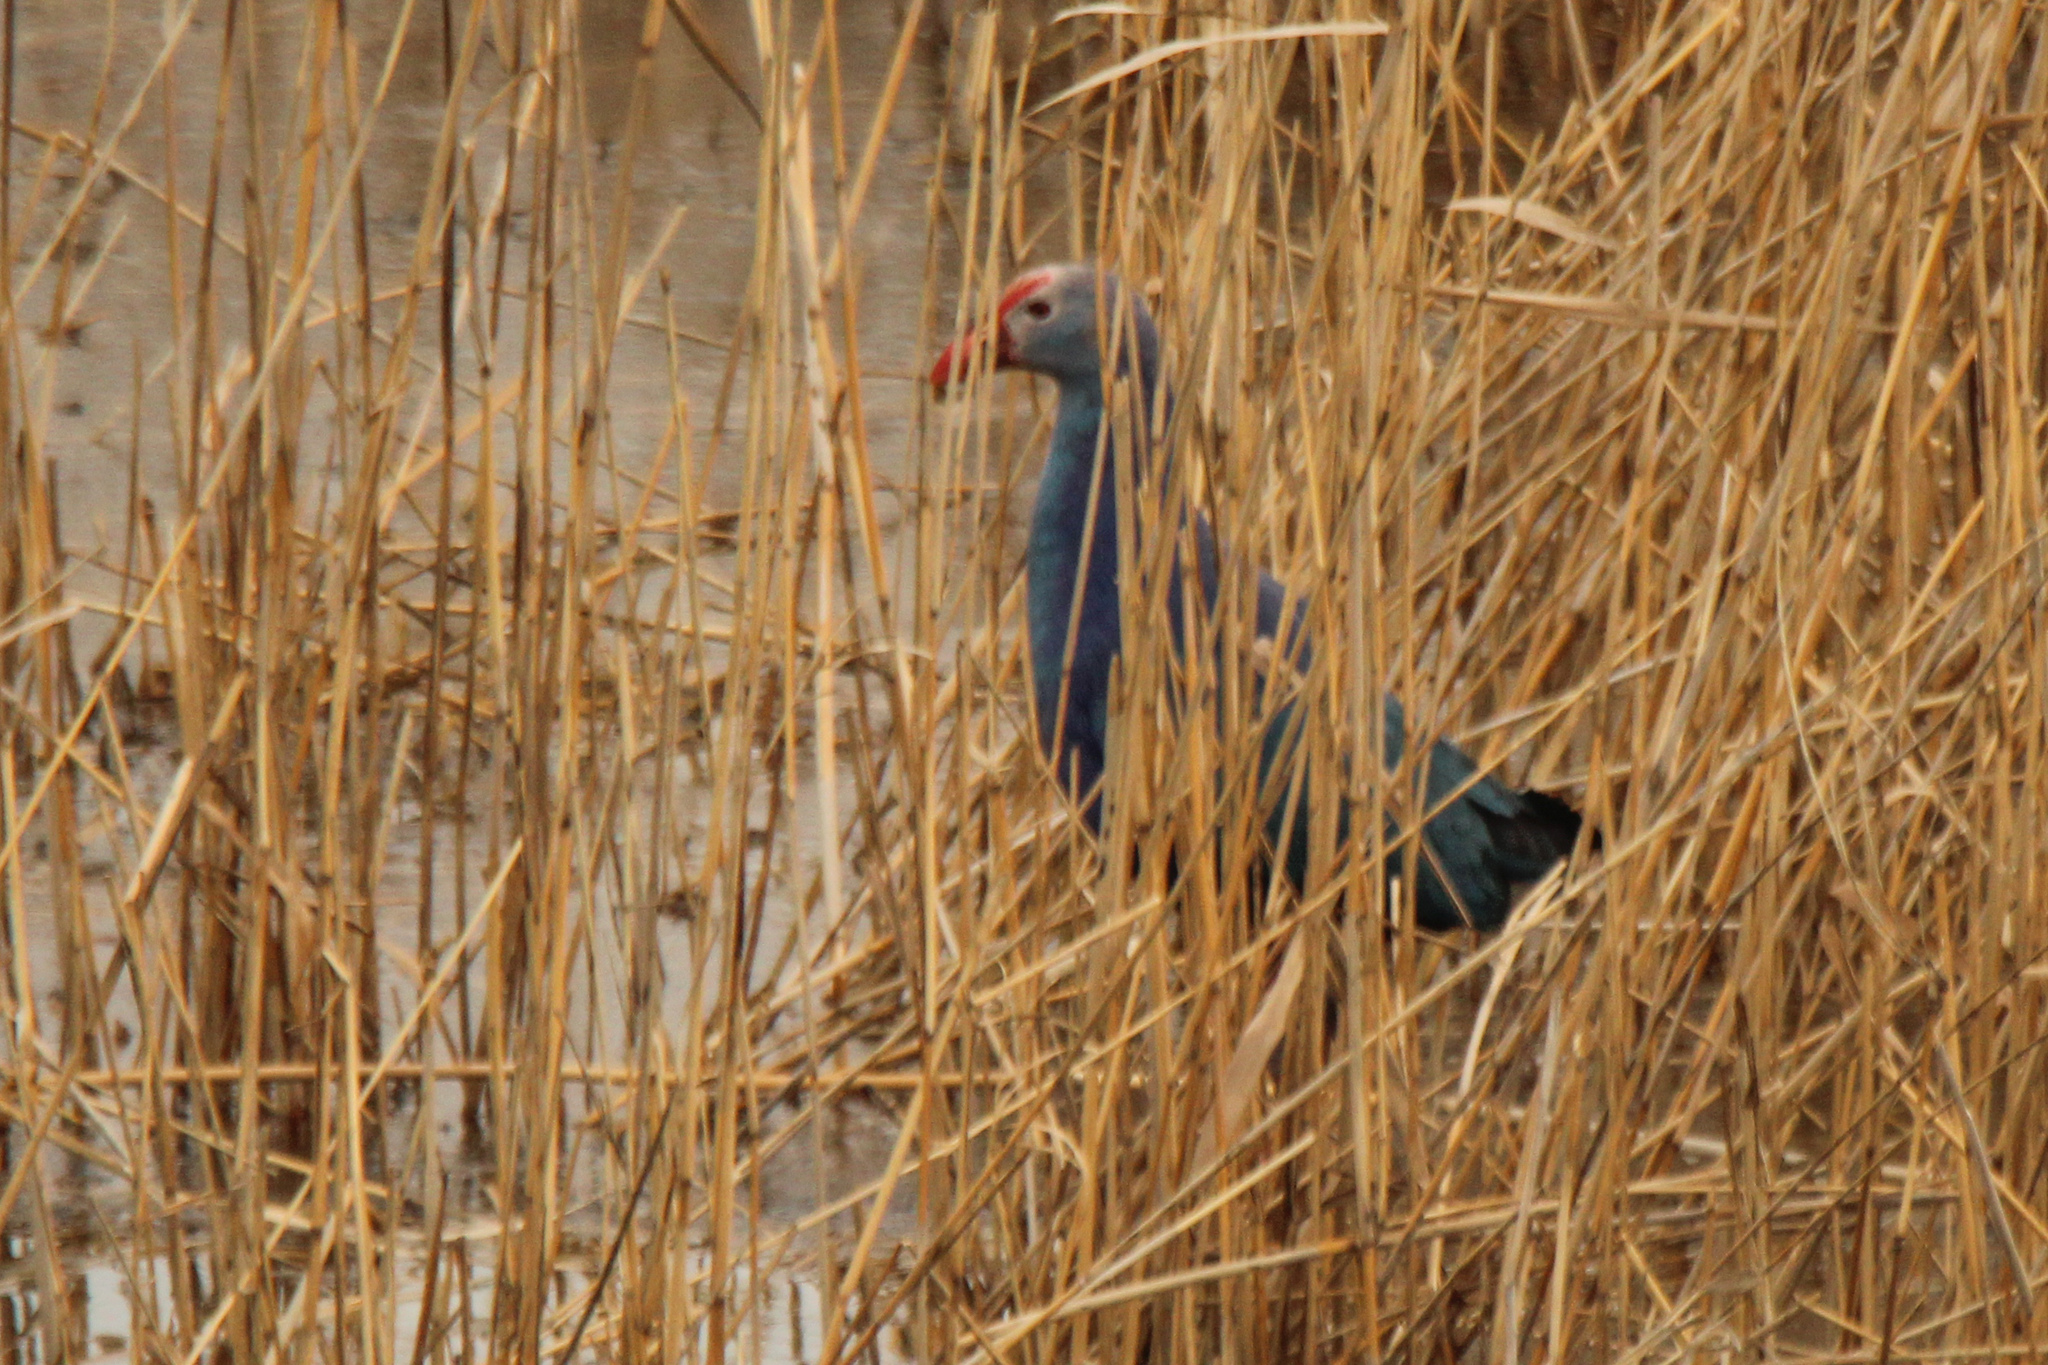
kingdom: Animalia
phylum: Chordata
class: Aves
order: Gruiformes
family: Rallidae
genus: Porphyrio
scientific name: Porphyrio porphyrio
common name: Purple swamphen
